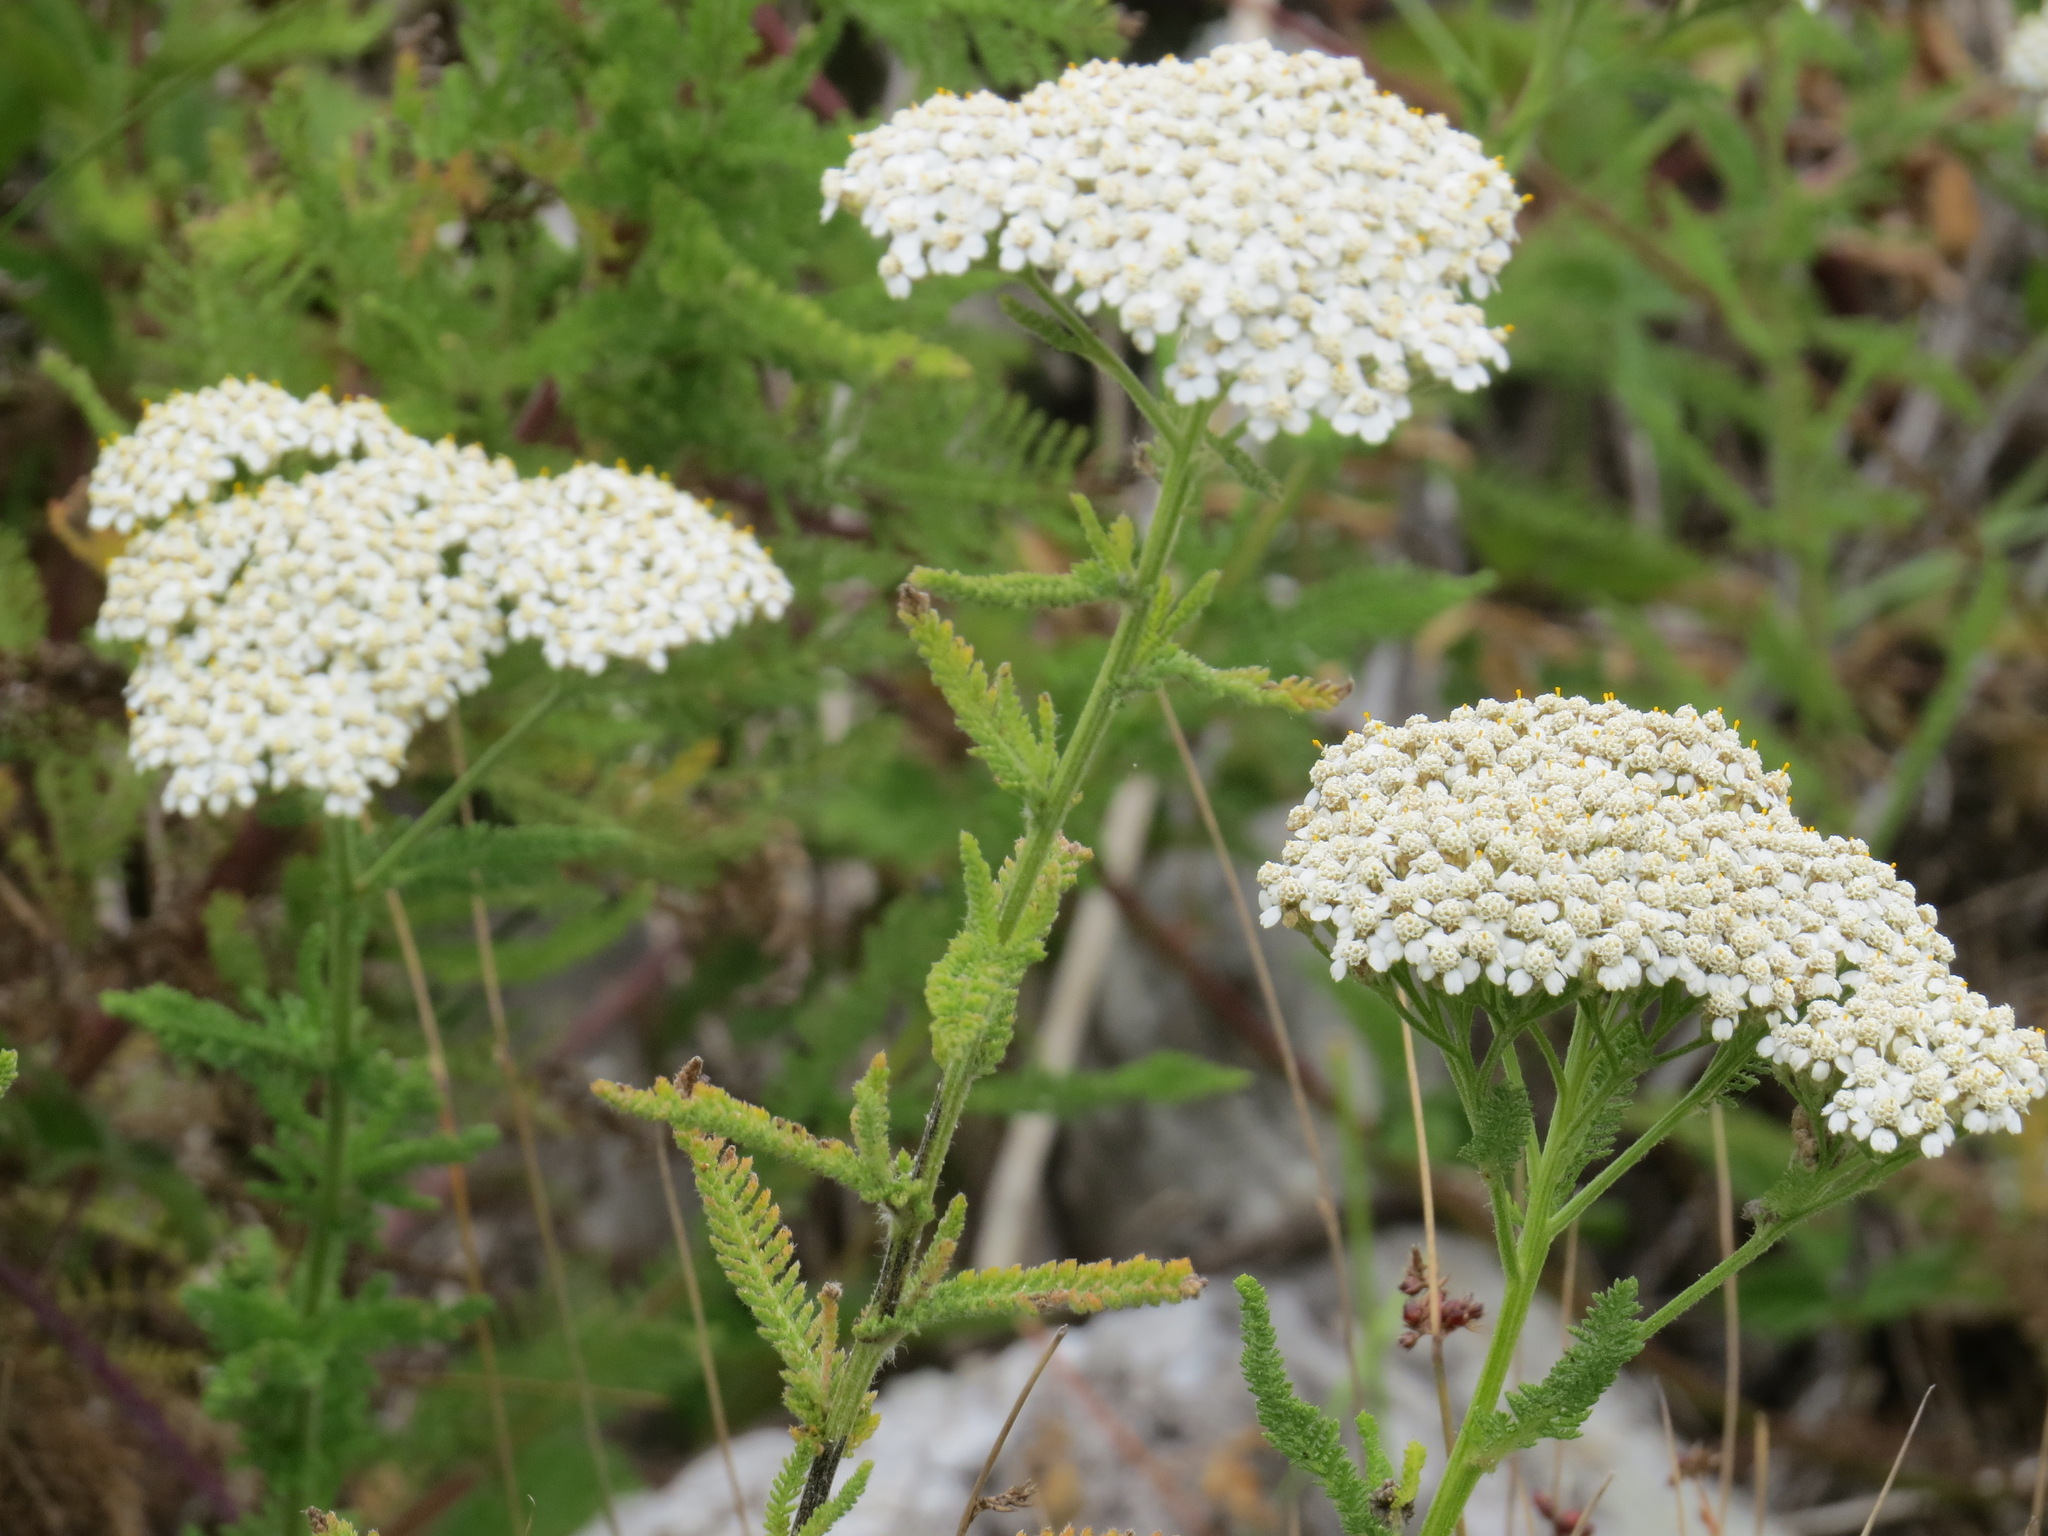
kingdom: Plantae
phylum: Tracheophyta
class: Magnoliopsida
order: Asterales
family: Asteraceae
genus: Achillea
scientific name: Achillea millefolium
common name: Yarrow
